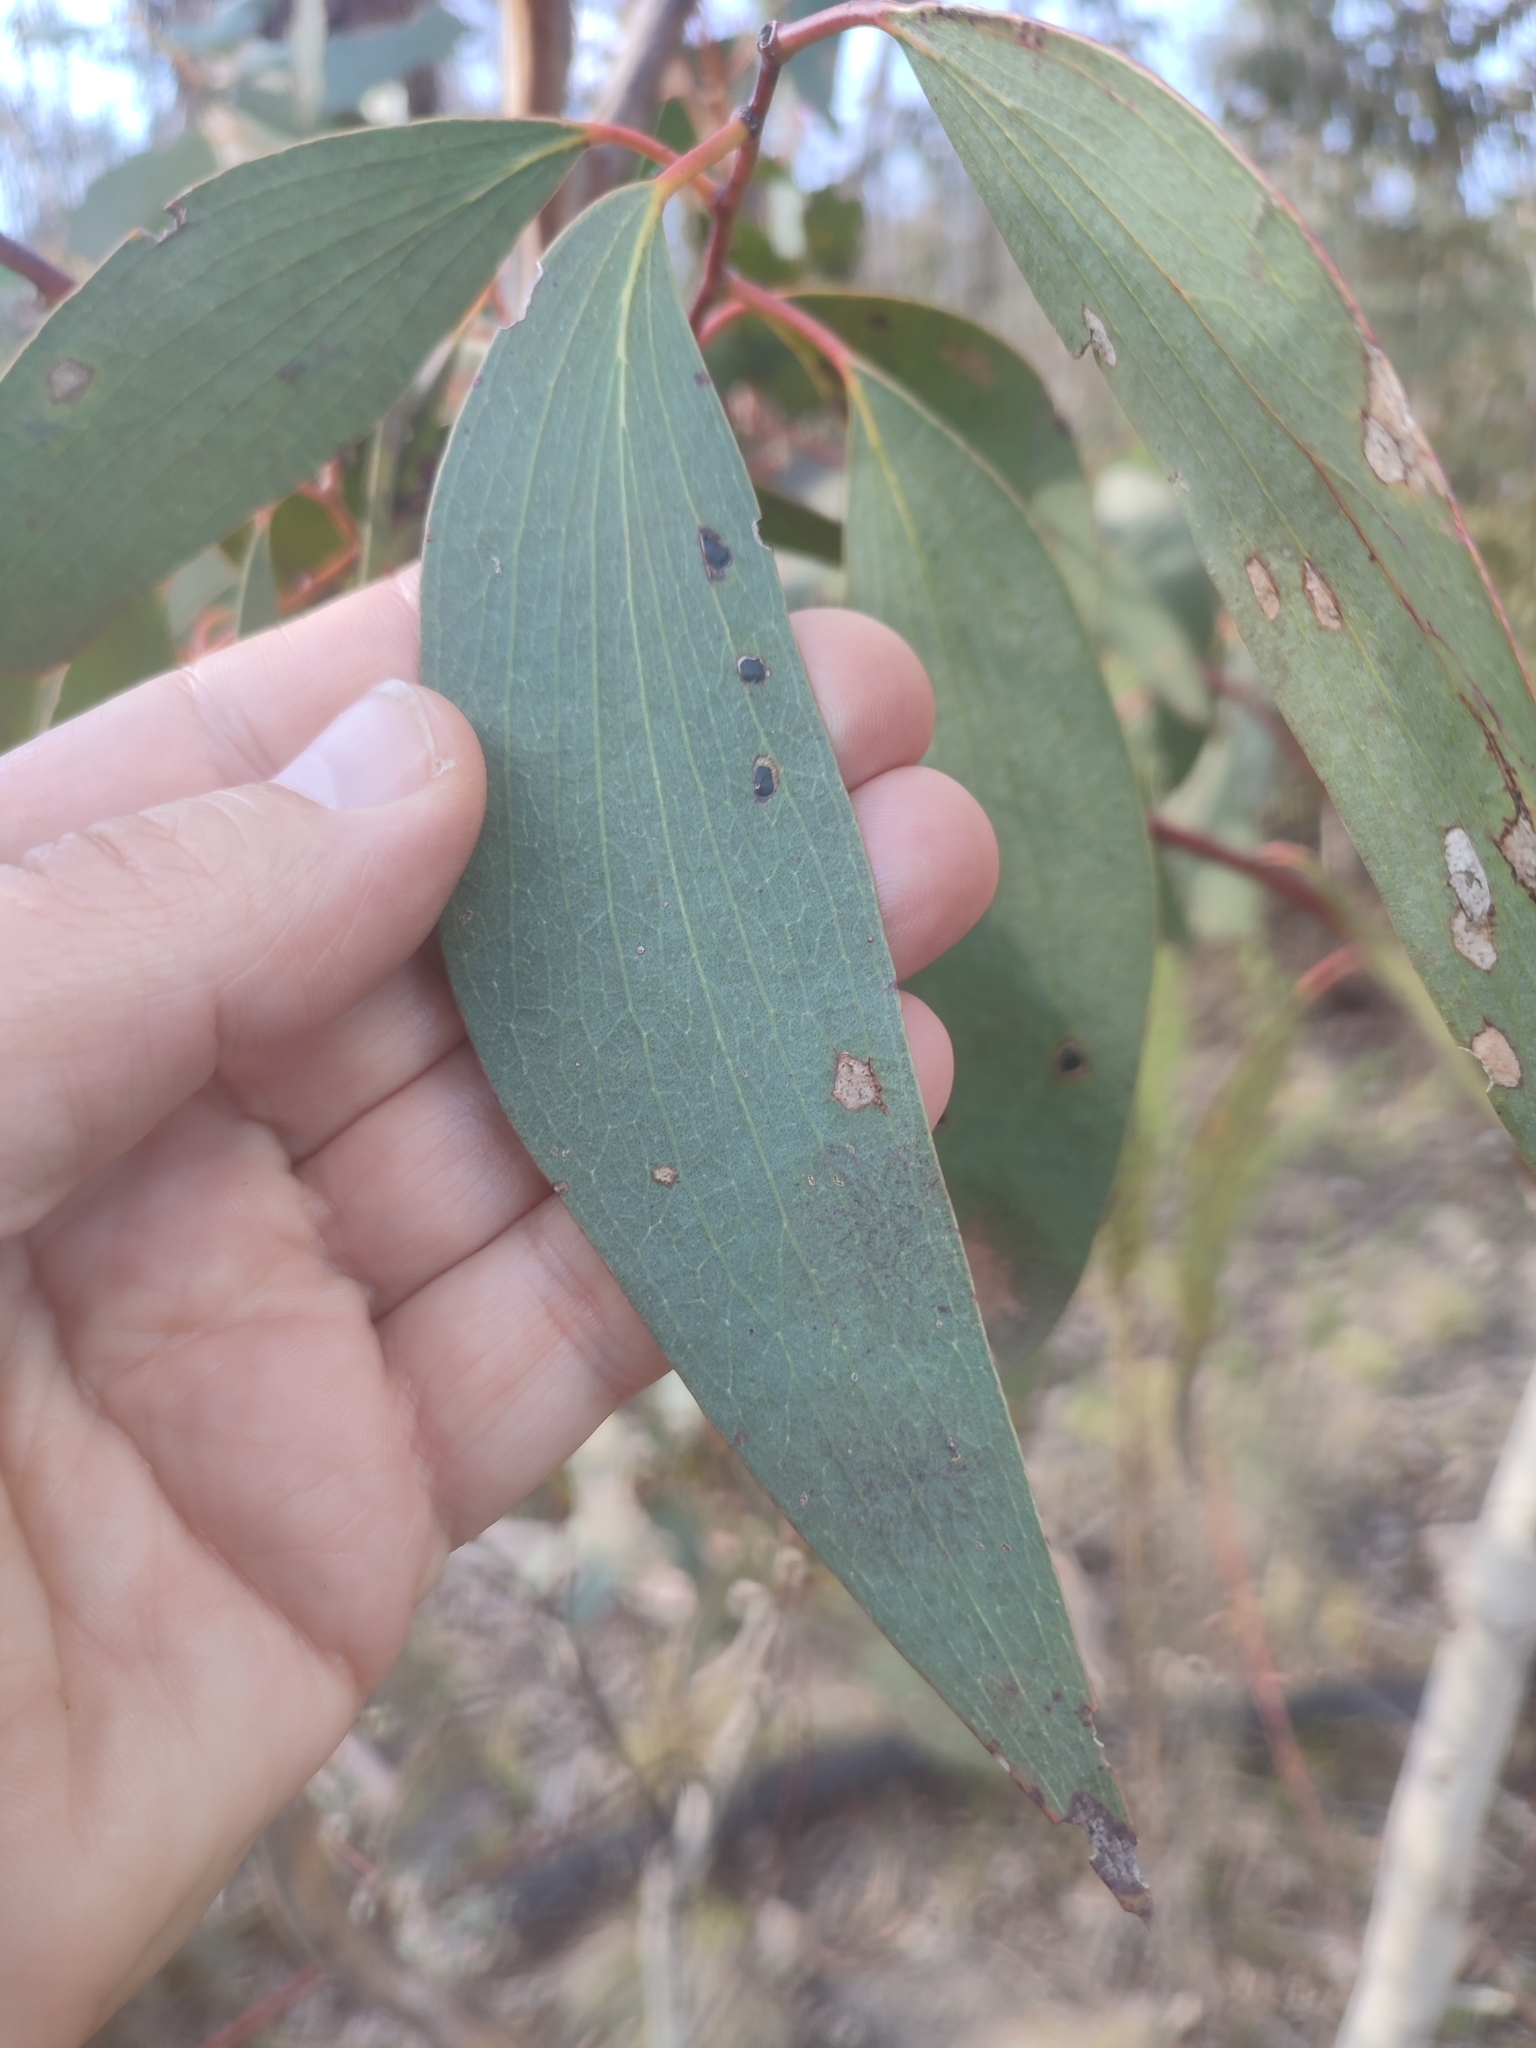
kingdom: Plantae
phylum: Tracheophyta
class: Magnoliopsida
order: Myrtales
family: Myrtaceae
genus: Eucalyptus
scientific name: Eucalyptus pauciflora
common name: Snow gum
